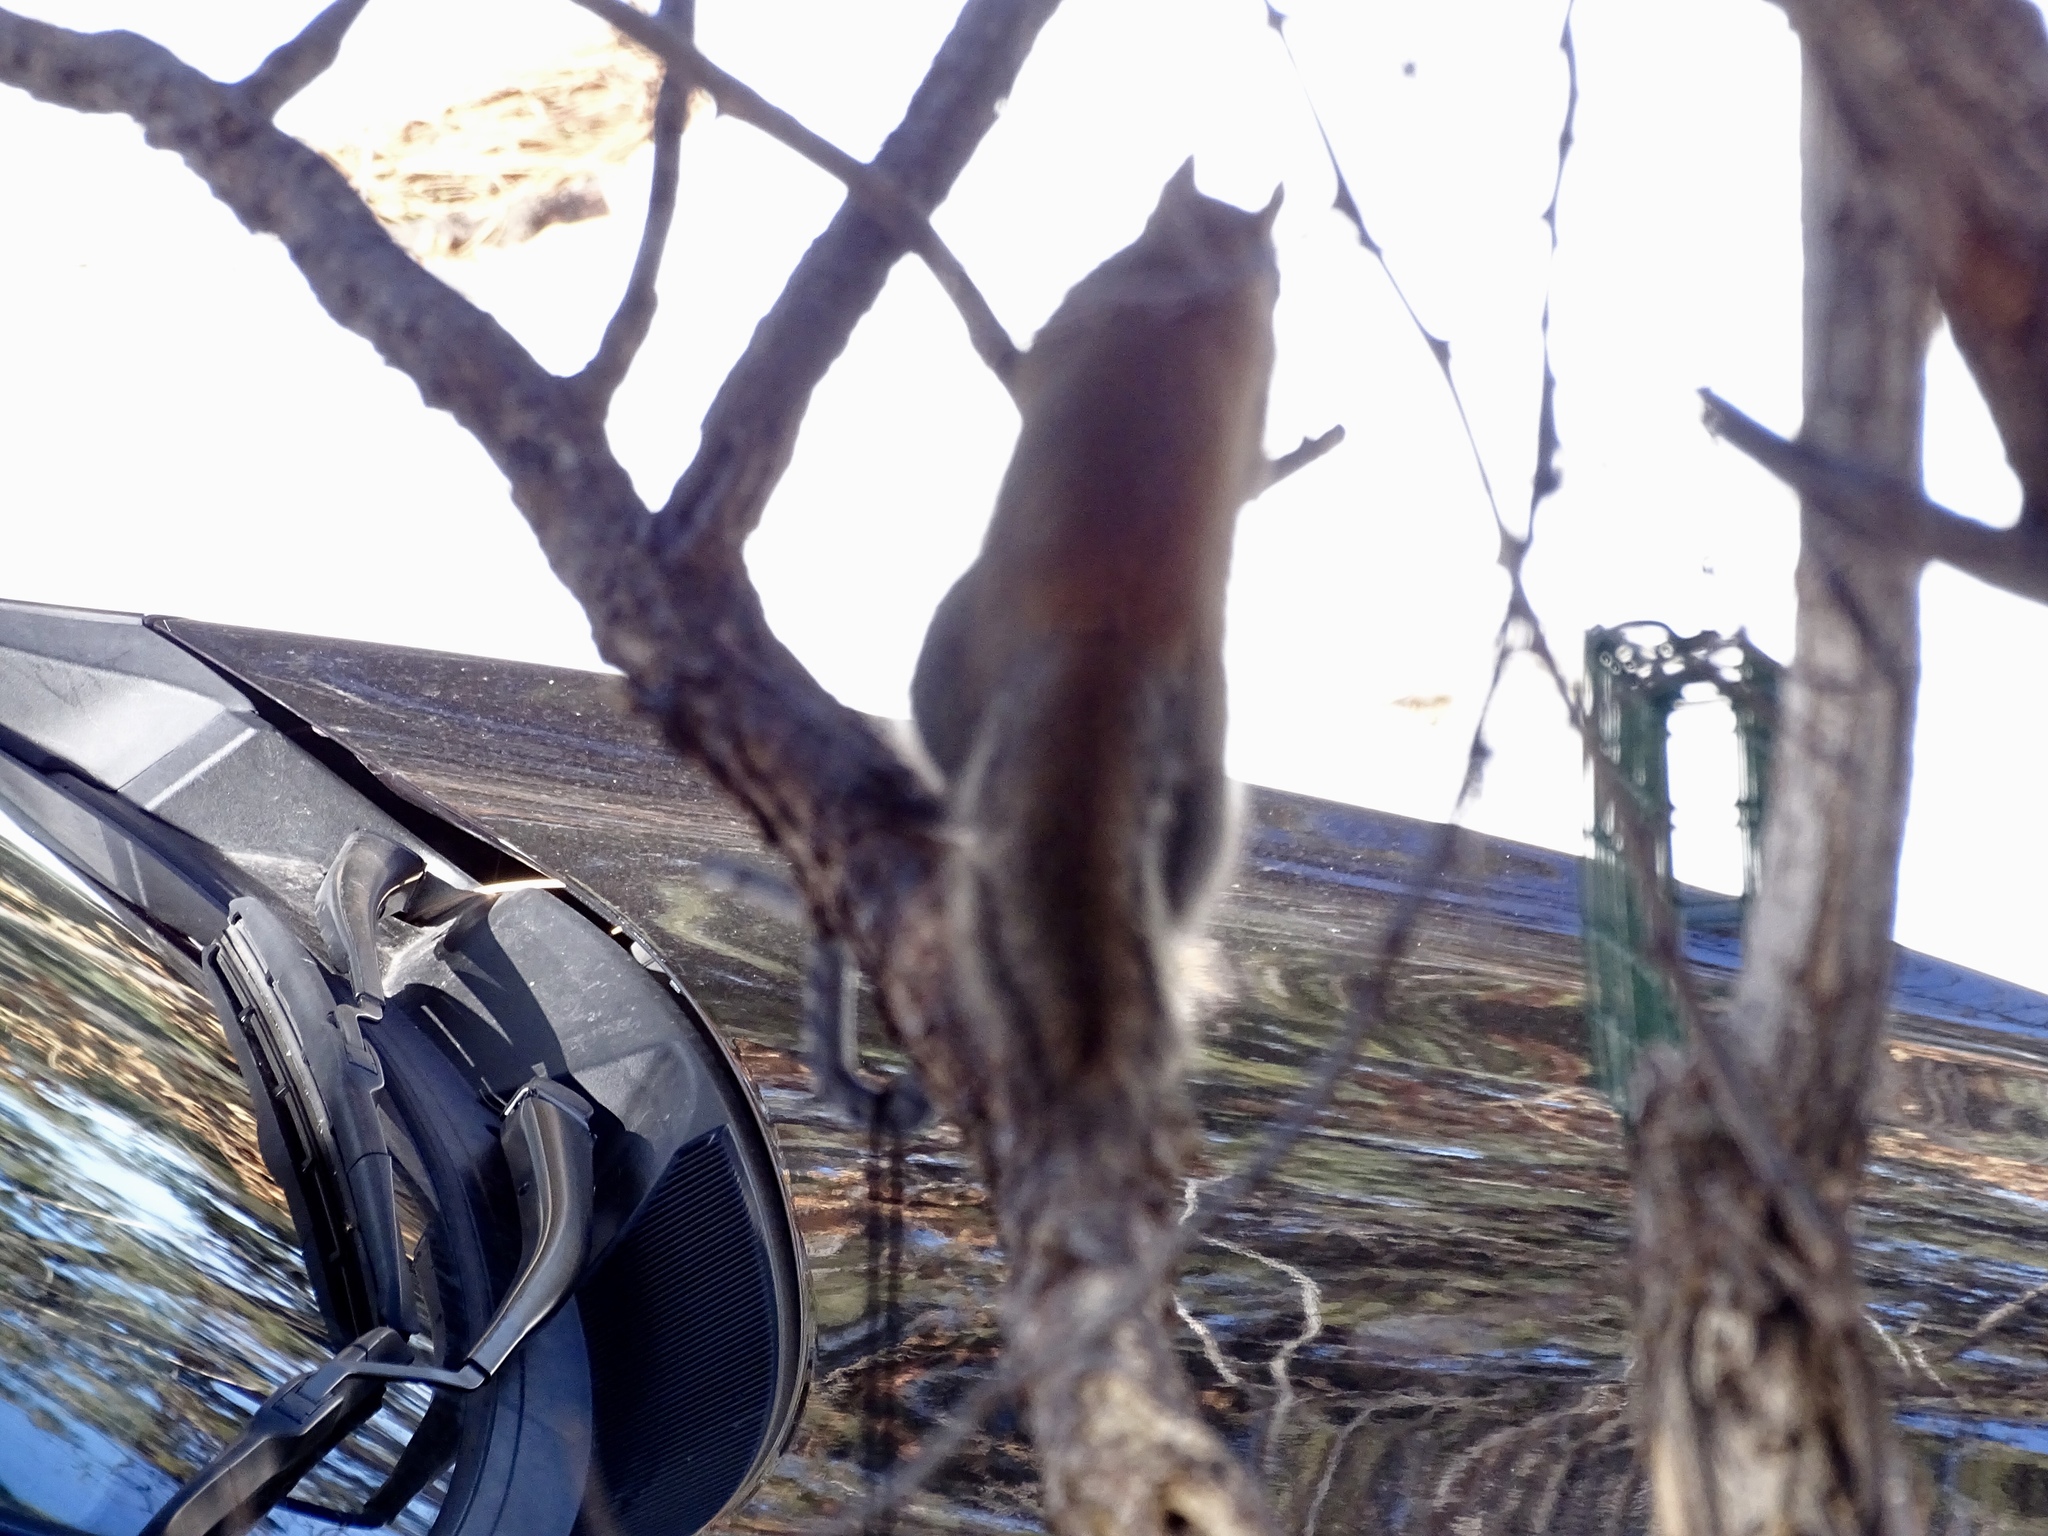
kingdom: Animalia
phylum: Chordata
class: Mammalia
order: Rodentia
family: Sciuridae
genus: Tamiasciurus
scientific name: Tamiasciurus hudsonicus
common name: Red squirrel
